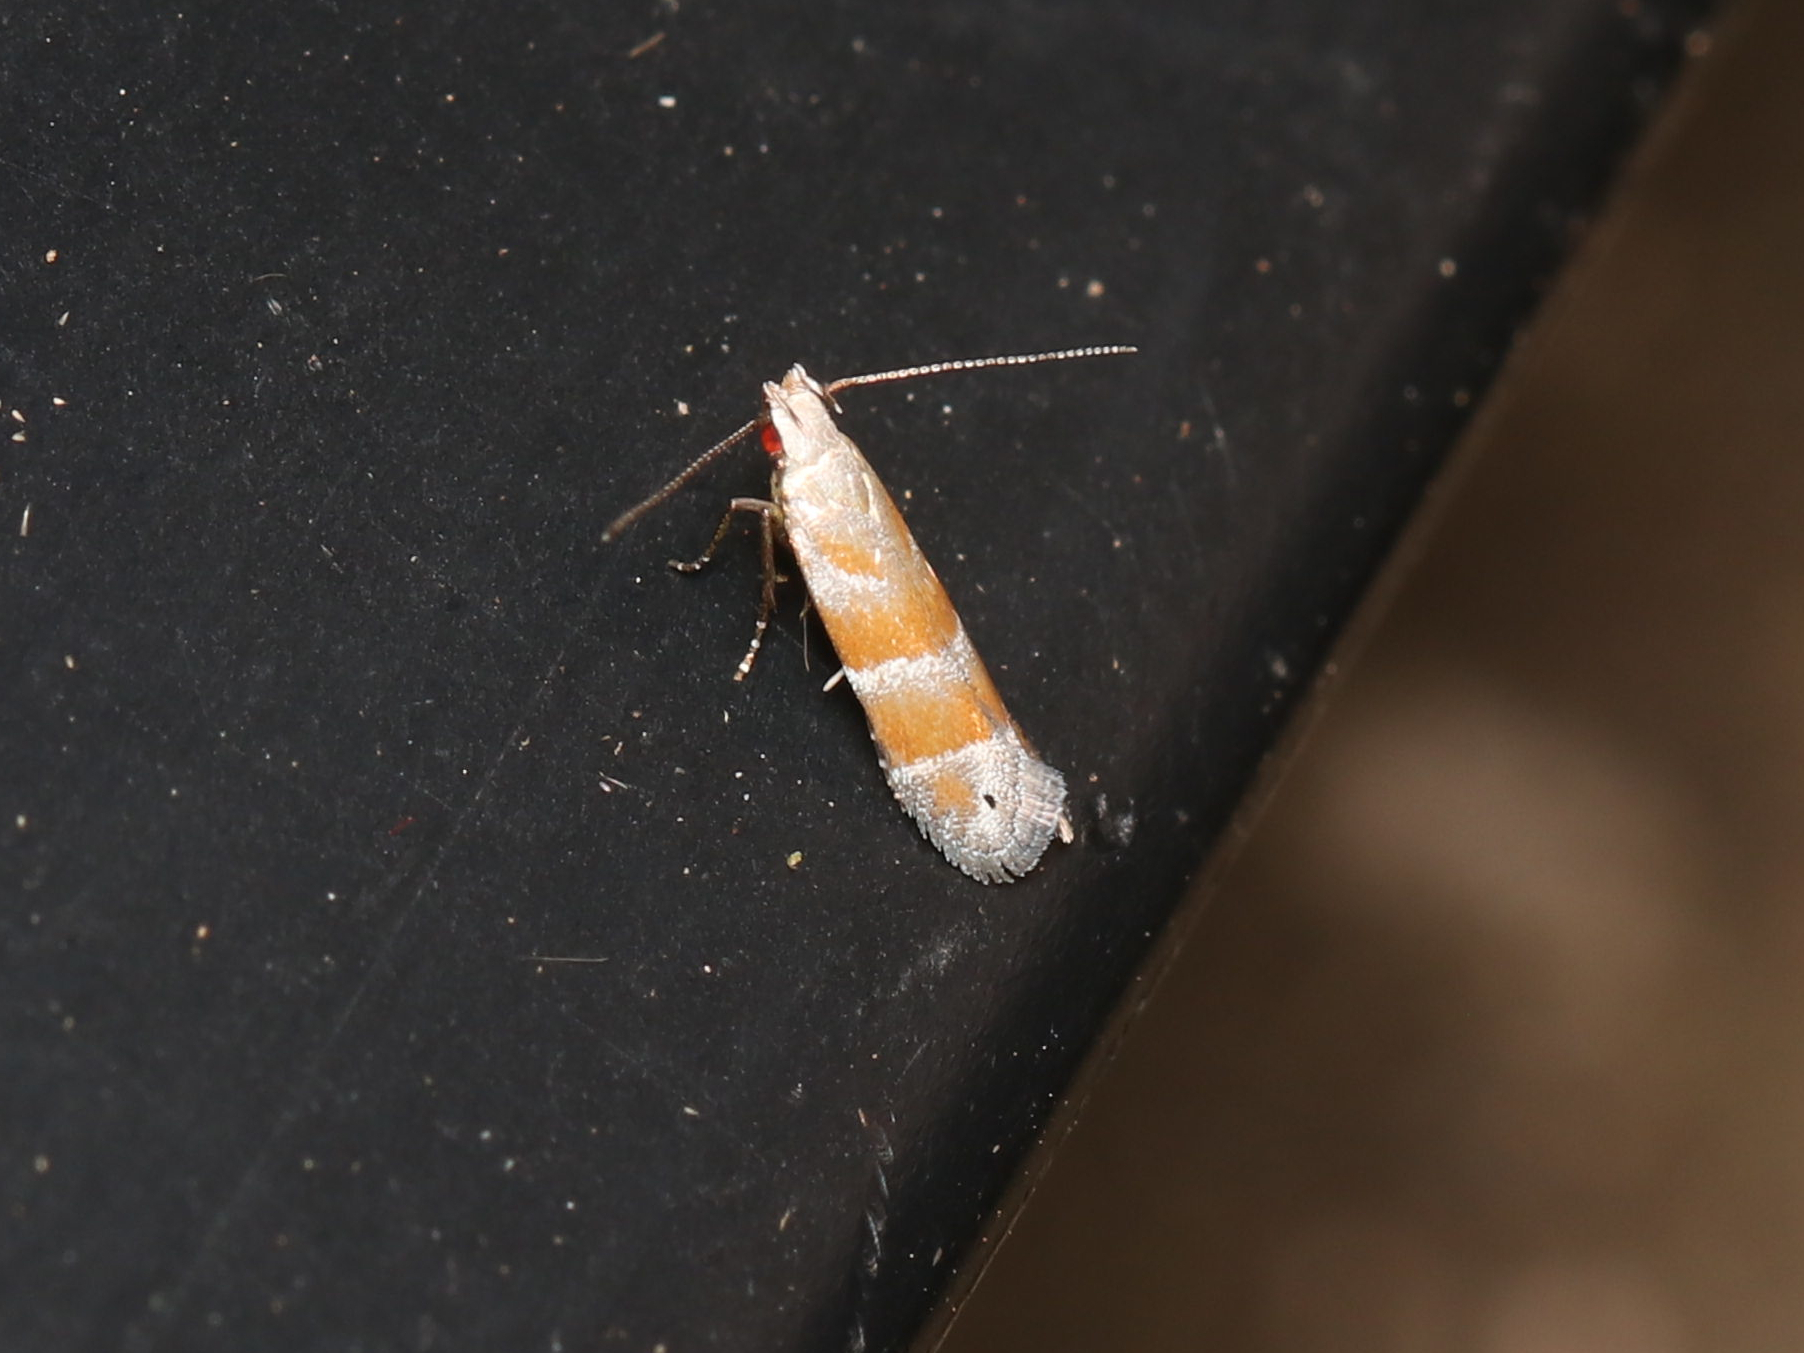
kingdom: Animalia
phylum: Arthropoda
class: Insecta
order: Lepidoptera
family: Gelechiidae
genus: Battaristis
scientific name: Battaristis vittella
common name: Orange stripe-backed moth
